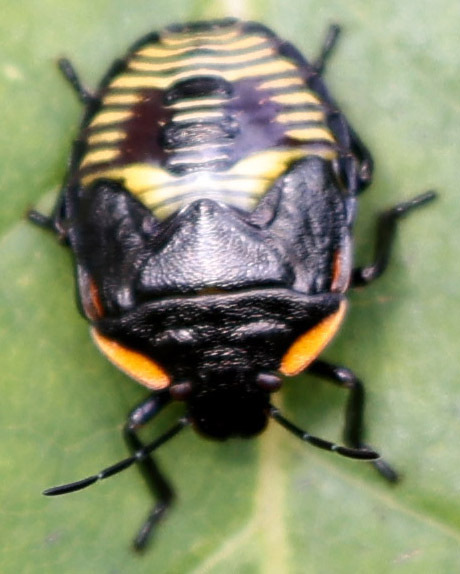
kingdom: Animalia
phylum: Arthropoda
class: Insecta
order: Hemiptera
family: Pentatomidae
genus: Chinavia
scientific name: Chinavia hilaris
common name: Green stink bug
